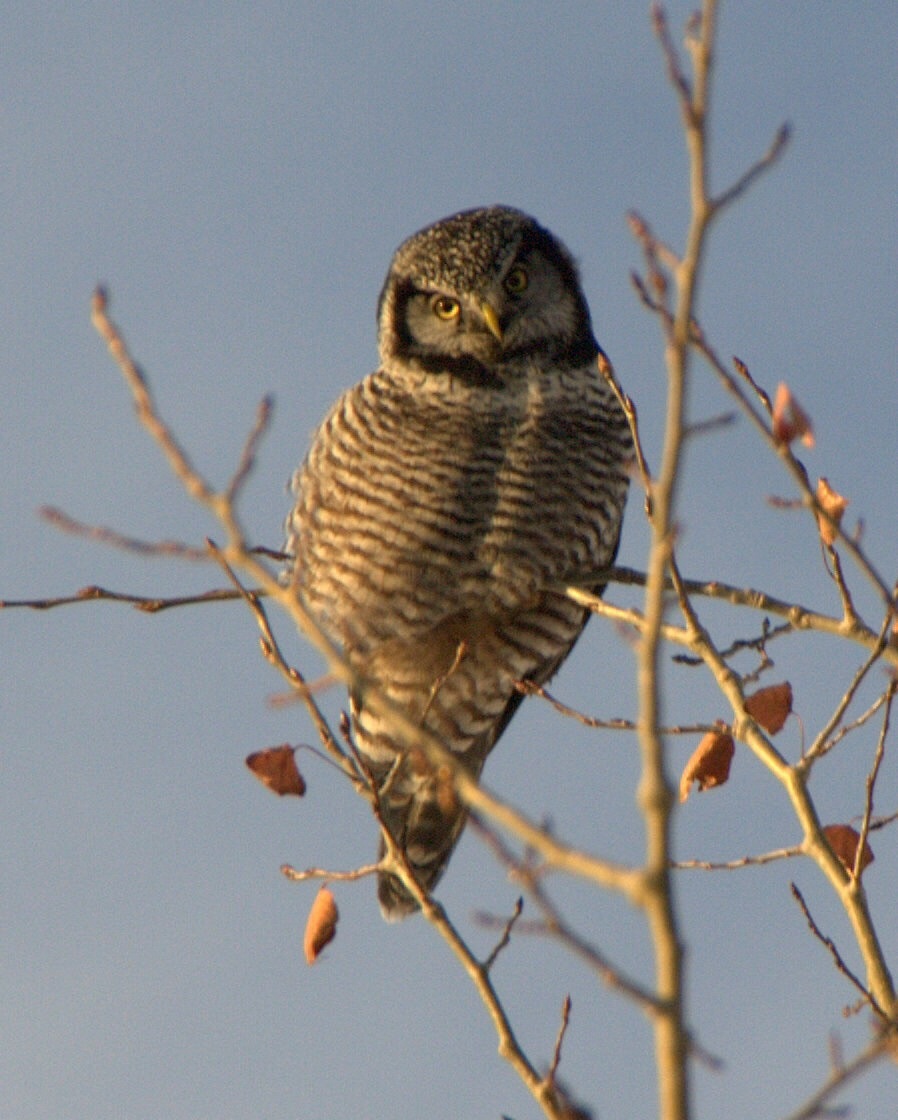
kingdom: Animalia
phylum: Chordata
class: Aves
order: Strigiformes
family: Strigidae
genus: Surnia
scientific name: Surnia ulula
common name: Northern hawk-owl
